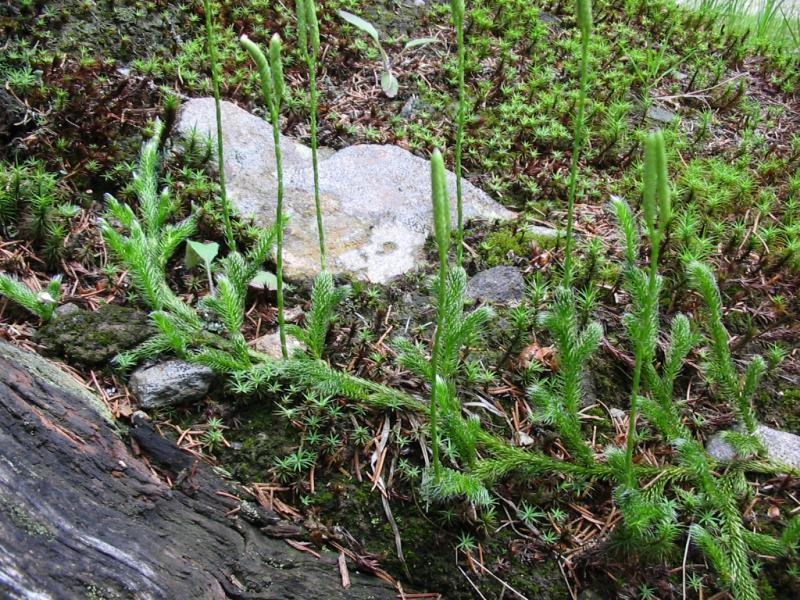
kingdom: Plantae
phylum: Tracheophyta
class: Lycopodiopsida
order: Lycopodiales
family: Lycopodiaceae
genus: Lycopodium
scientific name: Lycopodium clavatum
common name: Stag's-horn clubmoss
